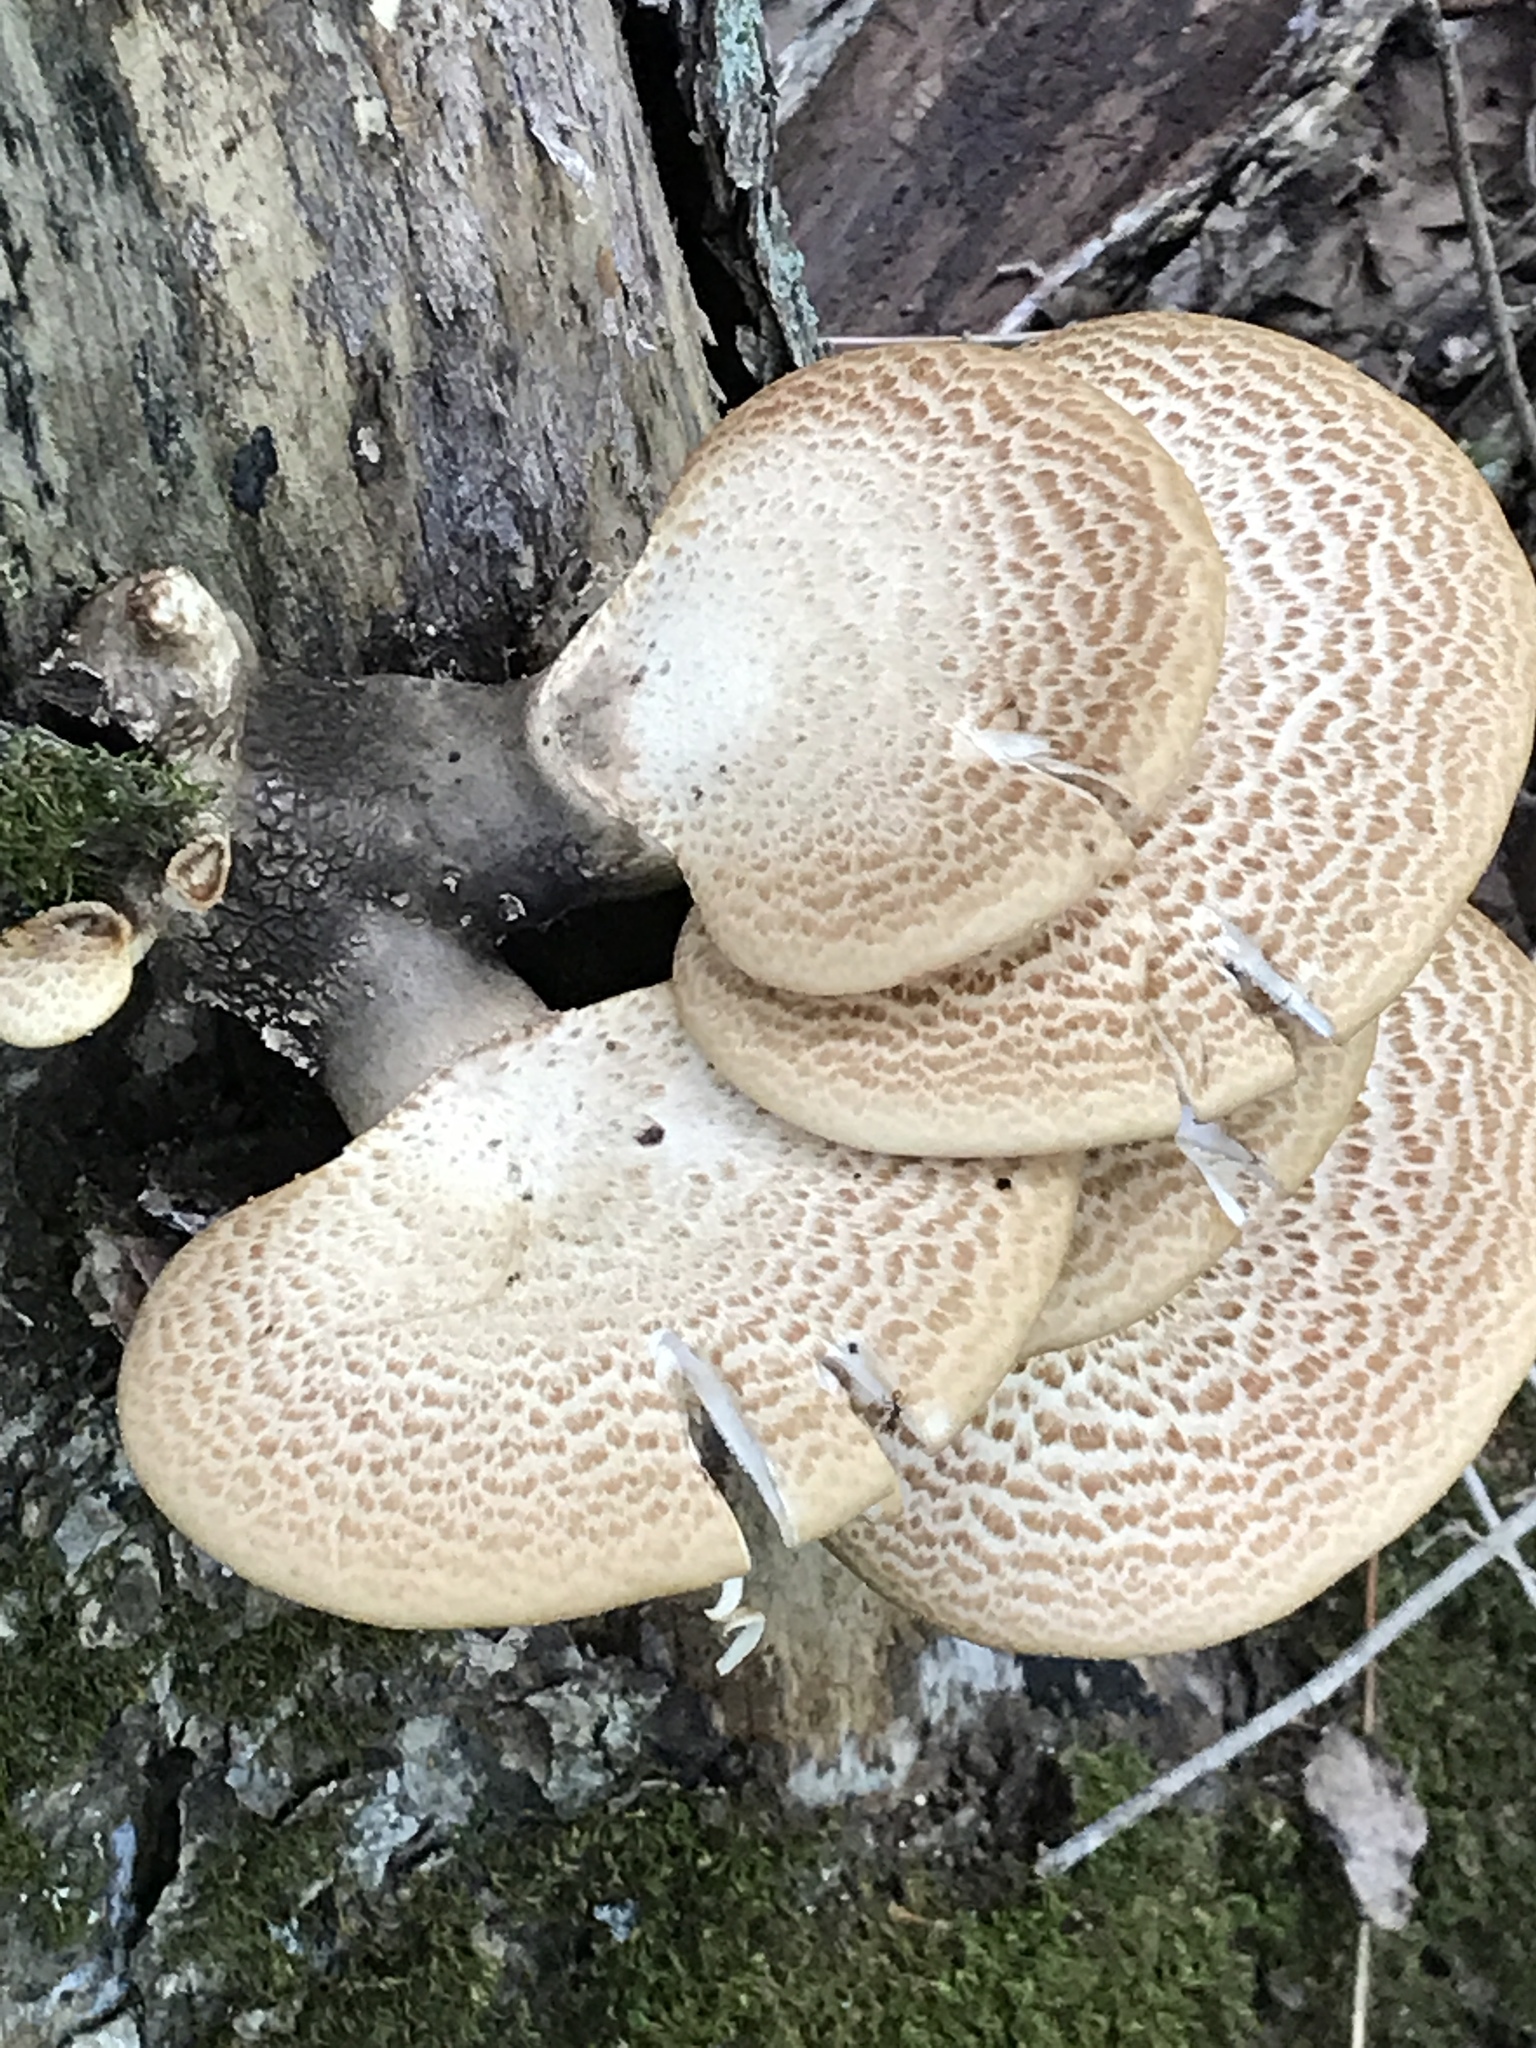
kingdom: Fungi
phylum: Basidiomycota
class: Agaricomycetes
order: Polyporales
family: Polyporaceae
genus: Cerioporus
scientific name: Cerioporus squamosus
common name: Dryad's saddle
